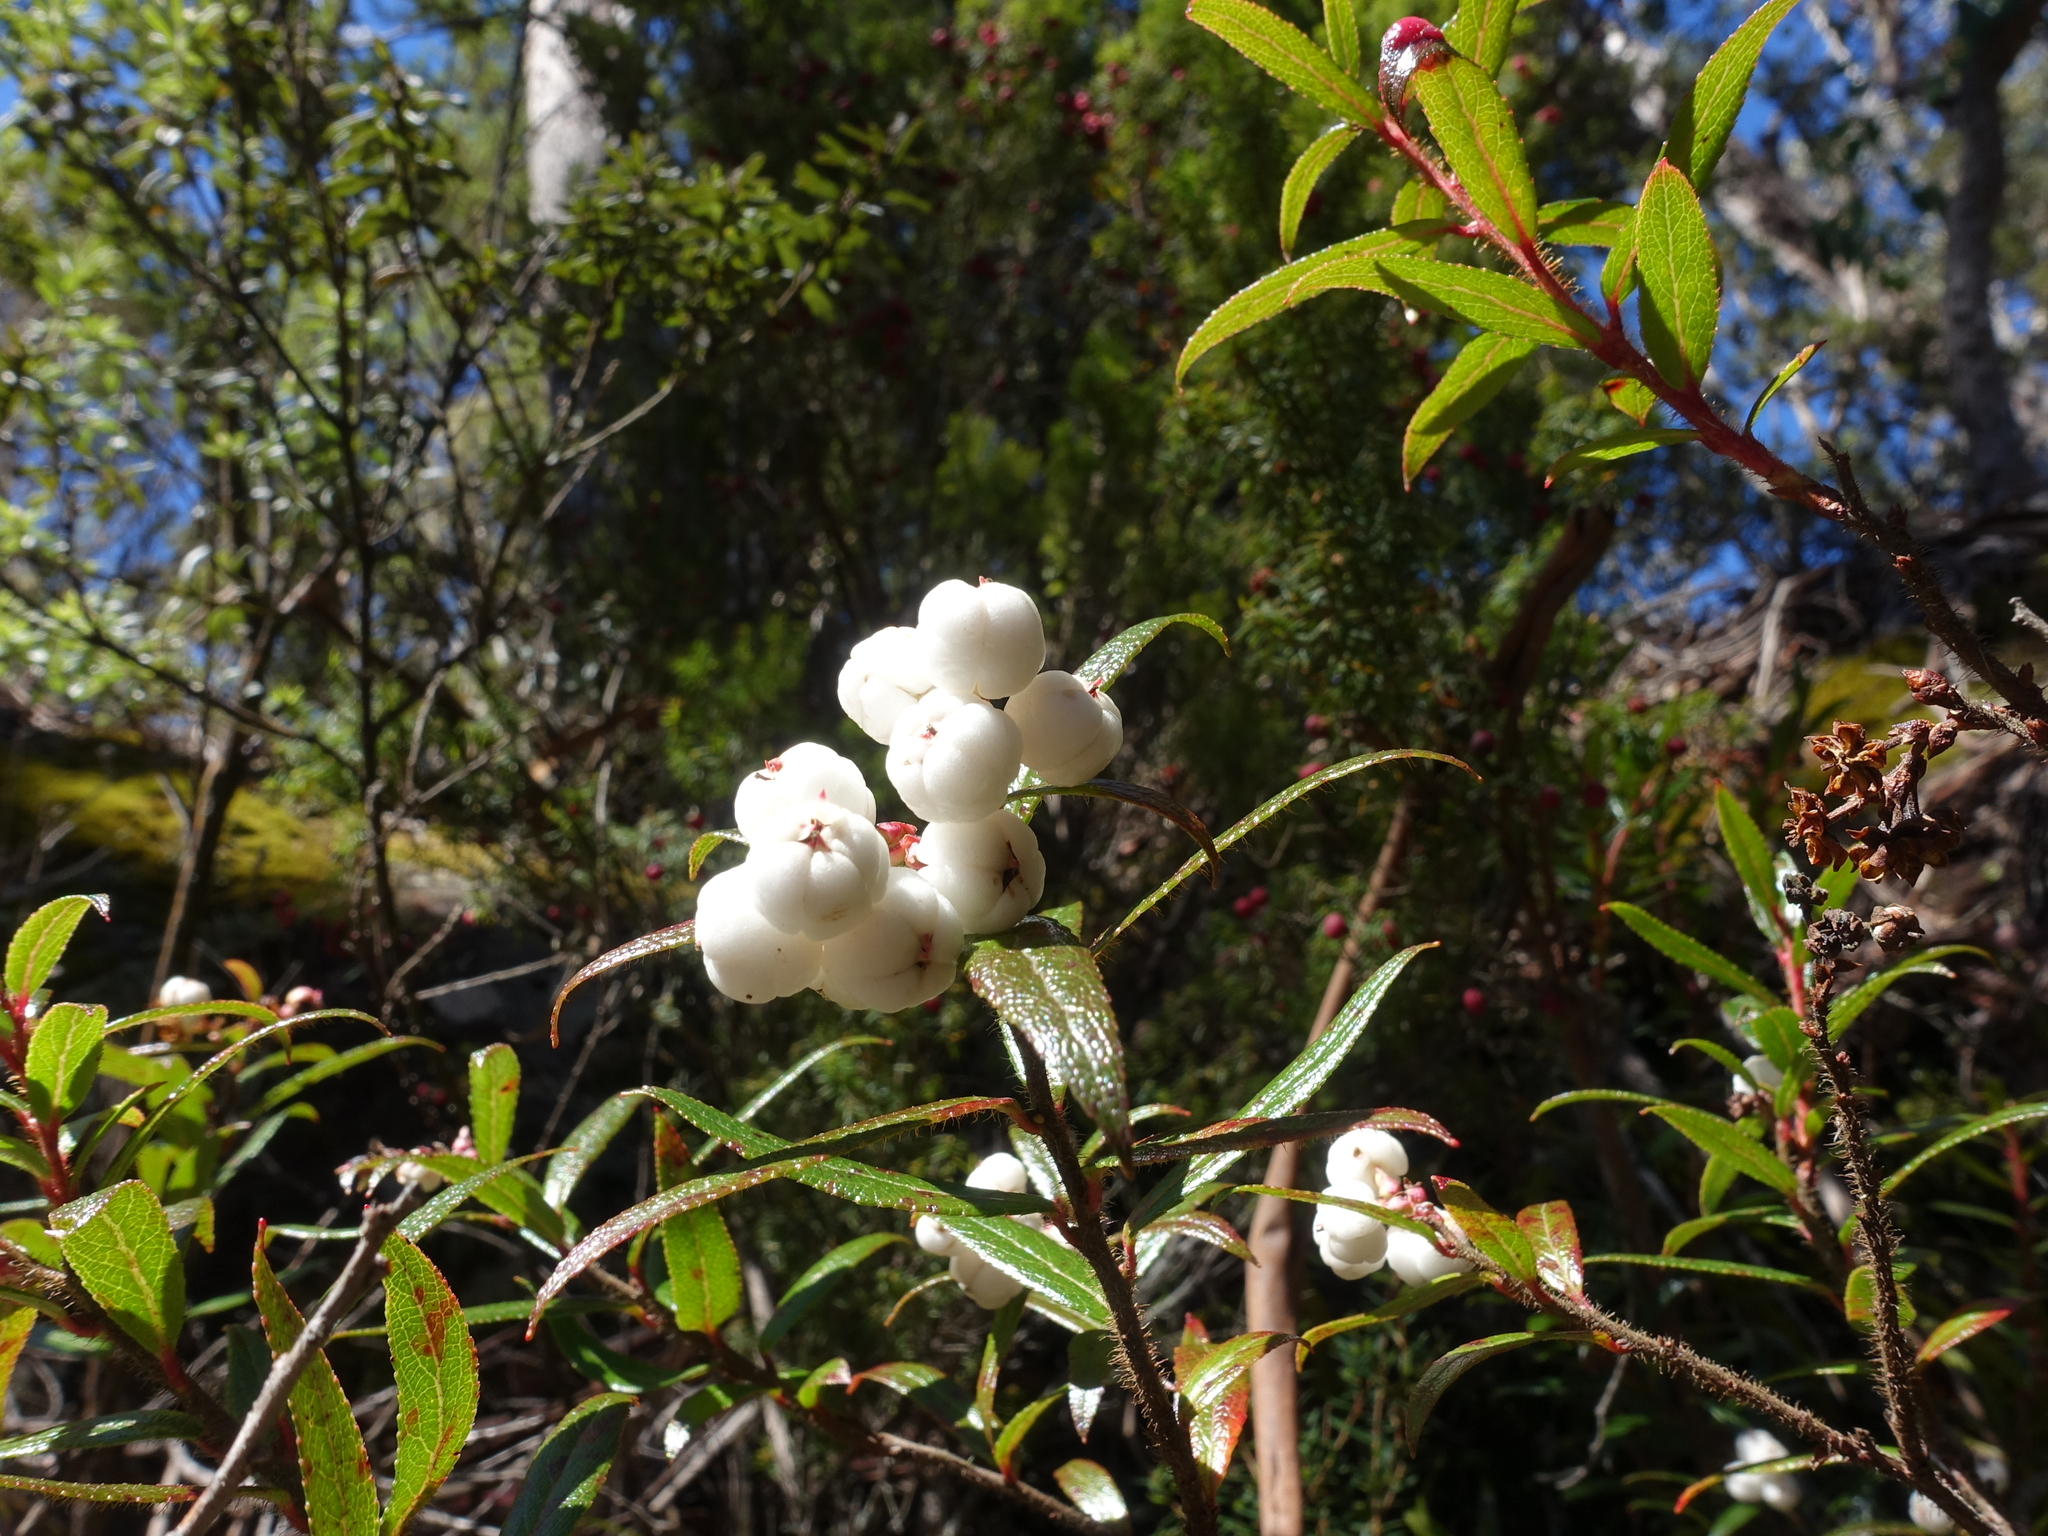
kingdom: Plantae
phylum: Tracheophyta
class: Magnoliopsida
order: Ericales
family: Ericaceae
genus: Gaultheria
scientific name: Gaultheria hispida
